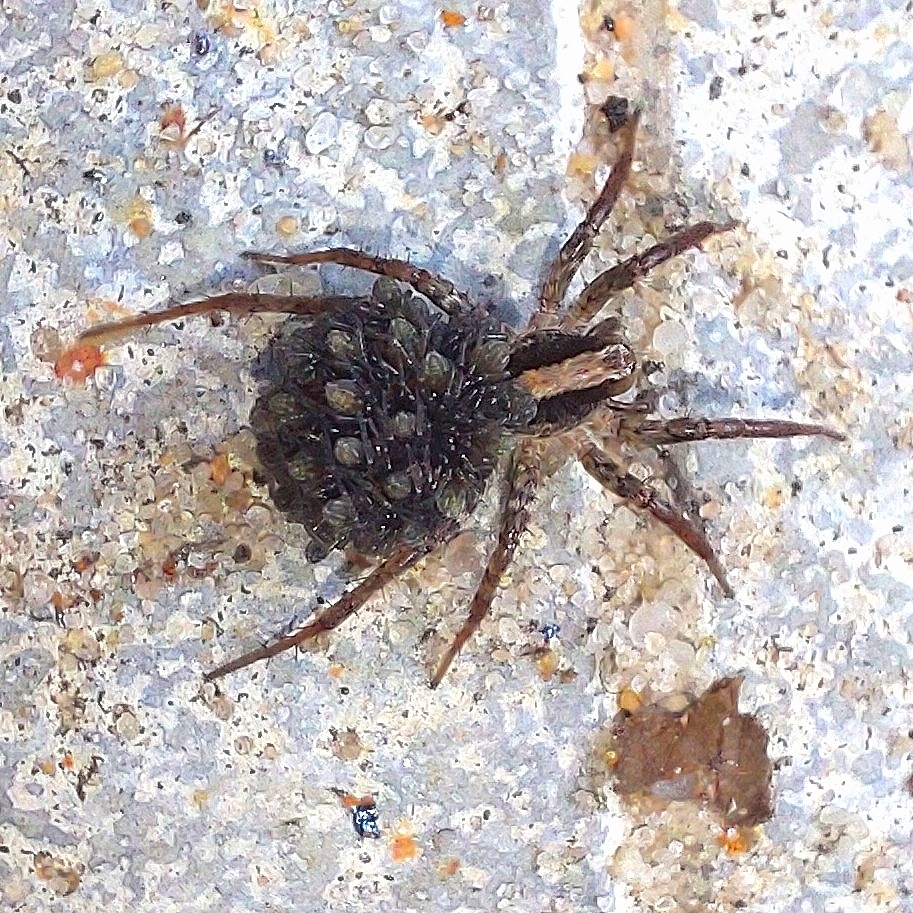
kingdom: Animalia
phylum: Arthropoda
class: Arachnida
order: Araneae
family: Lycosidae
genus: Xerolycosa
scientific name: Xerolycosa nemoralis
